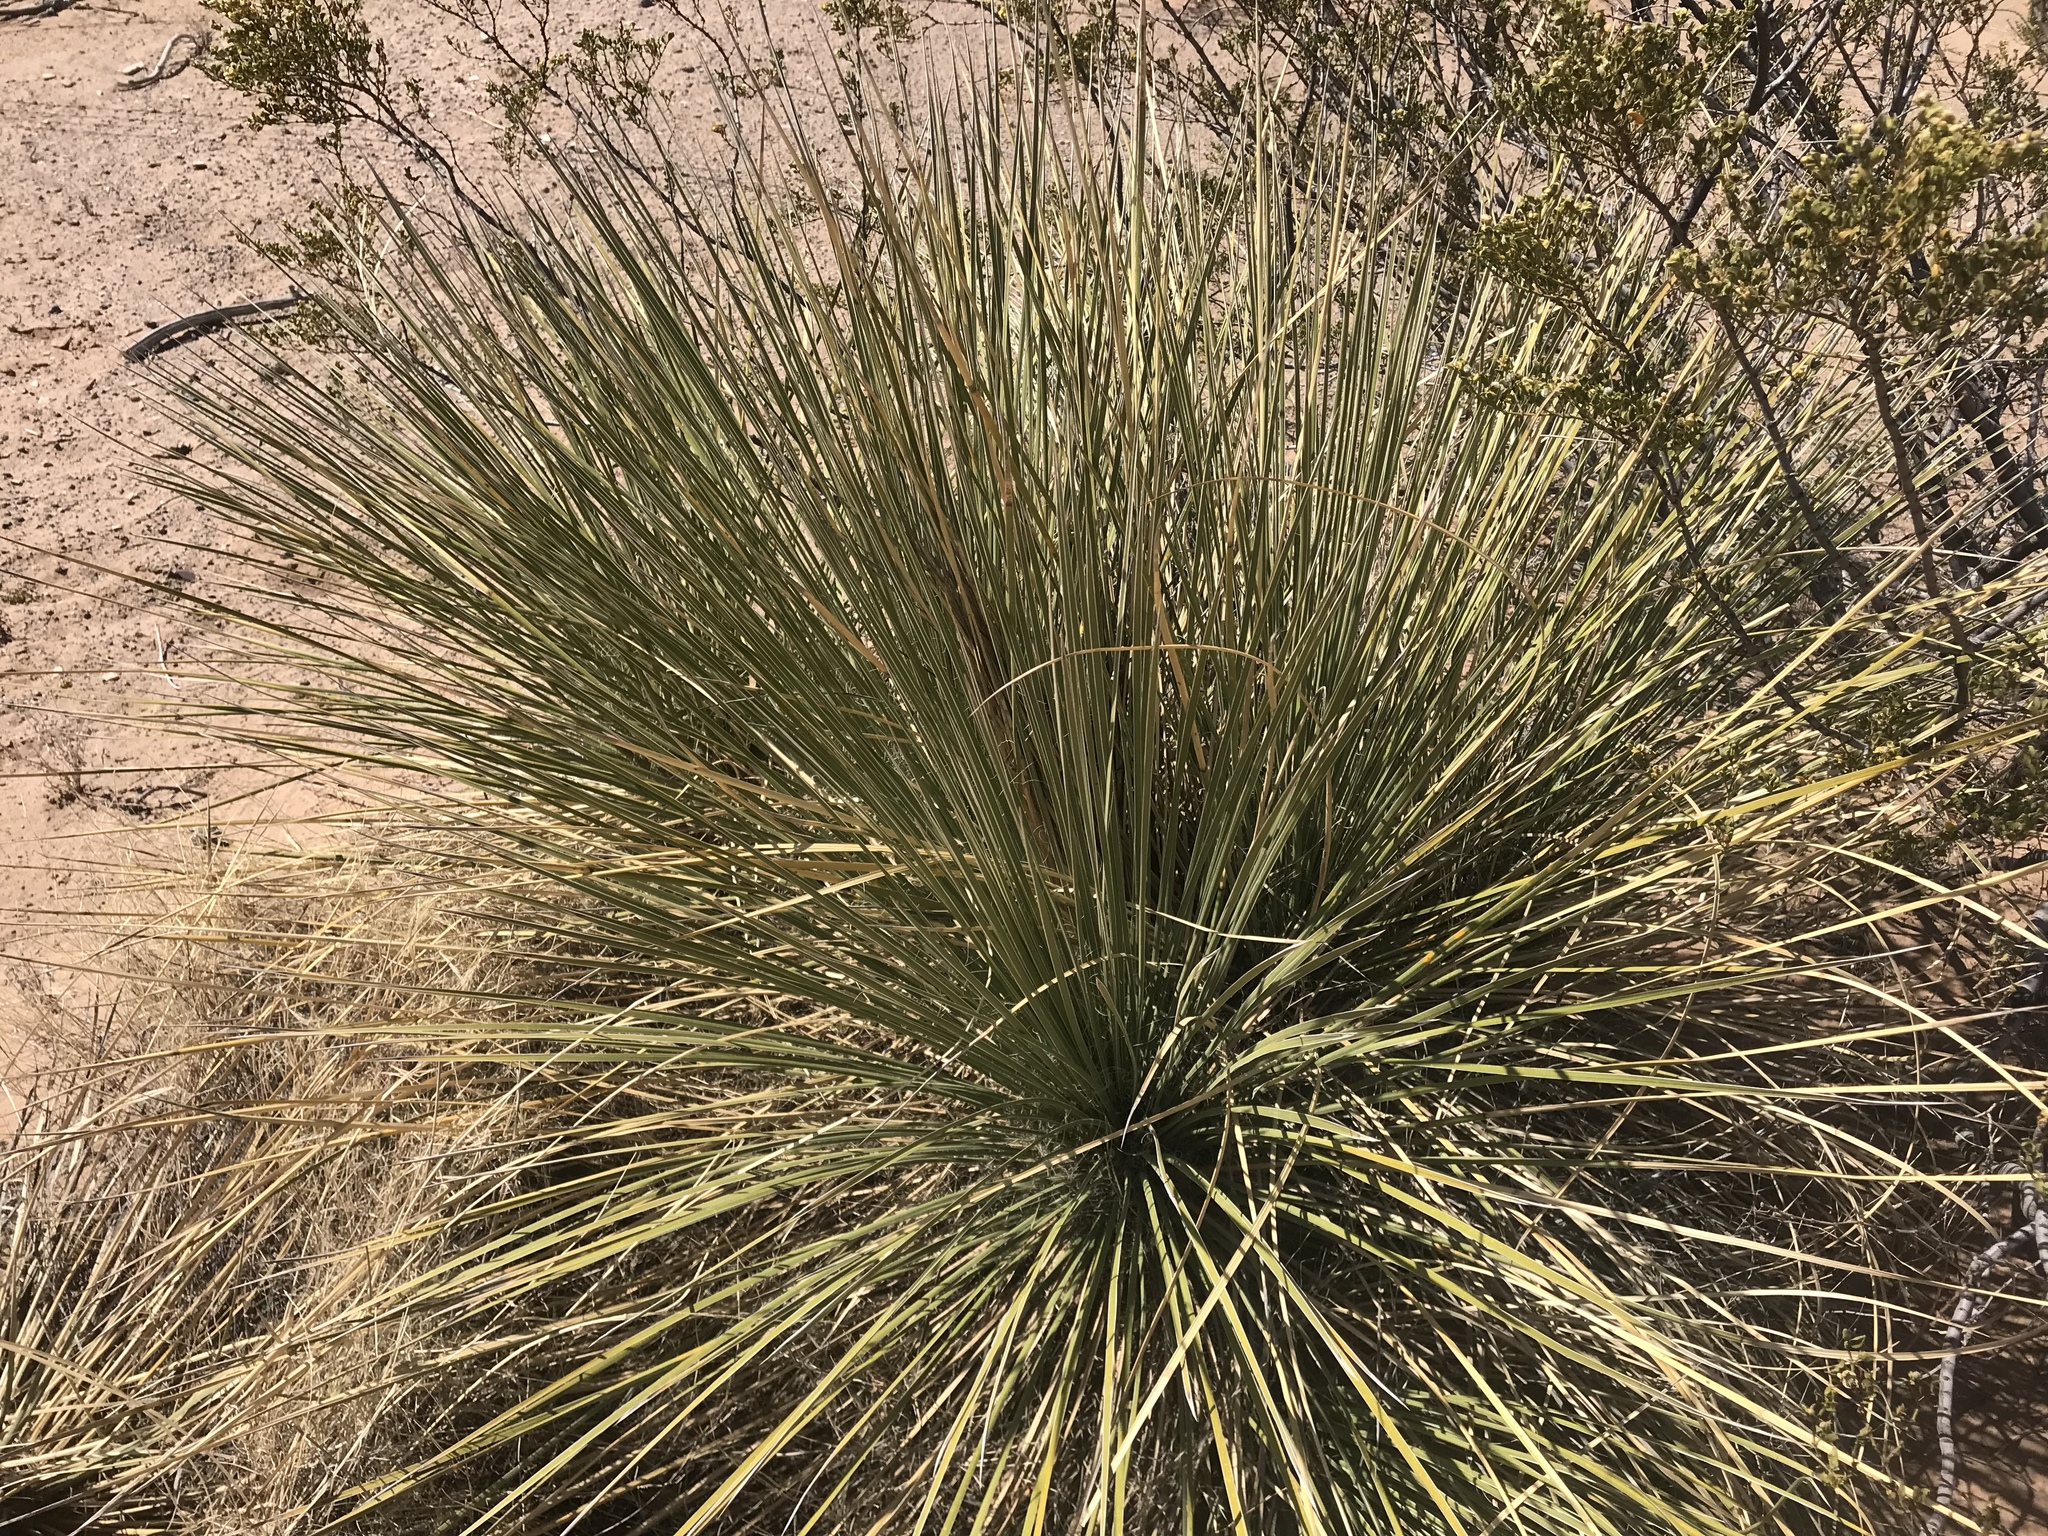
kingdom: Plantae
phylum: Tracheophyta
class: Liliopsida
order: Asparagales
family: Asparagaceae
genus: Yucca
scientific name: Yucca elata
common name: Palmella
